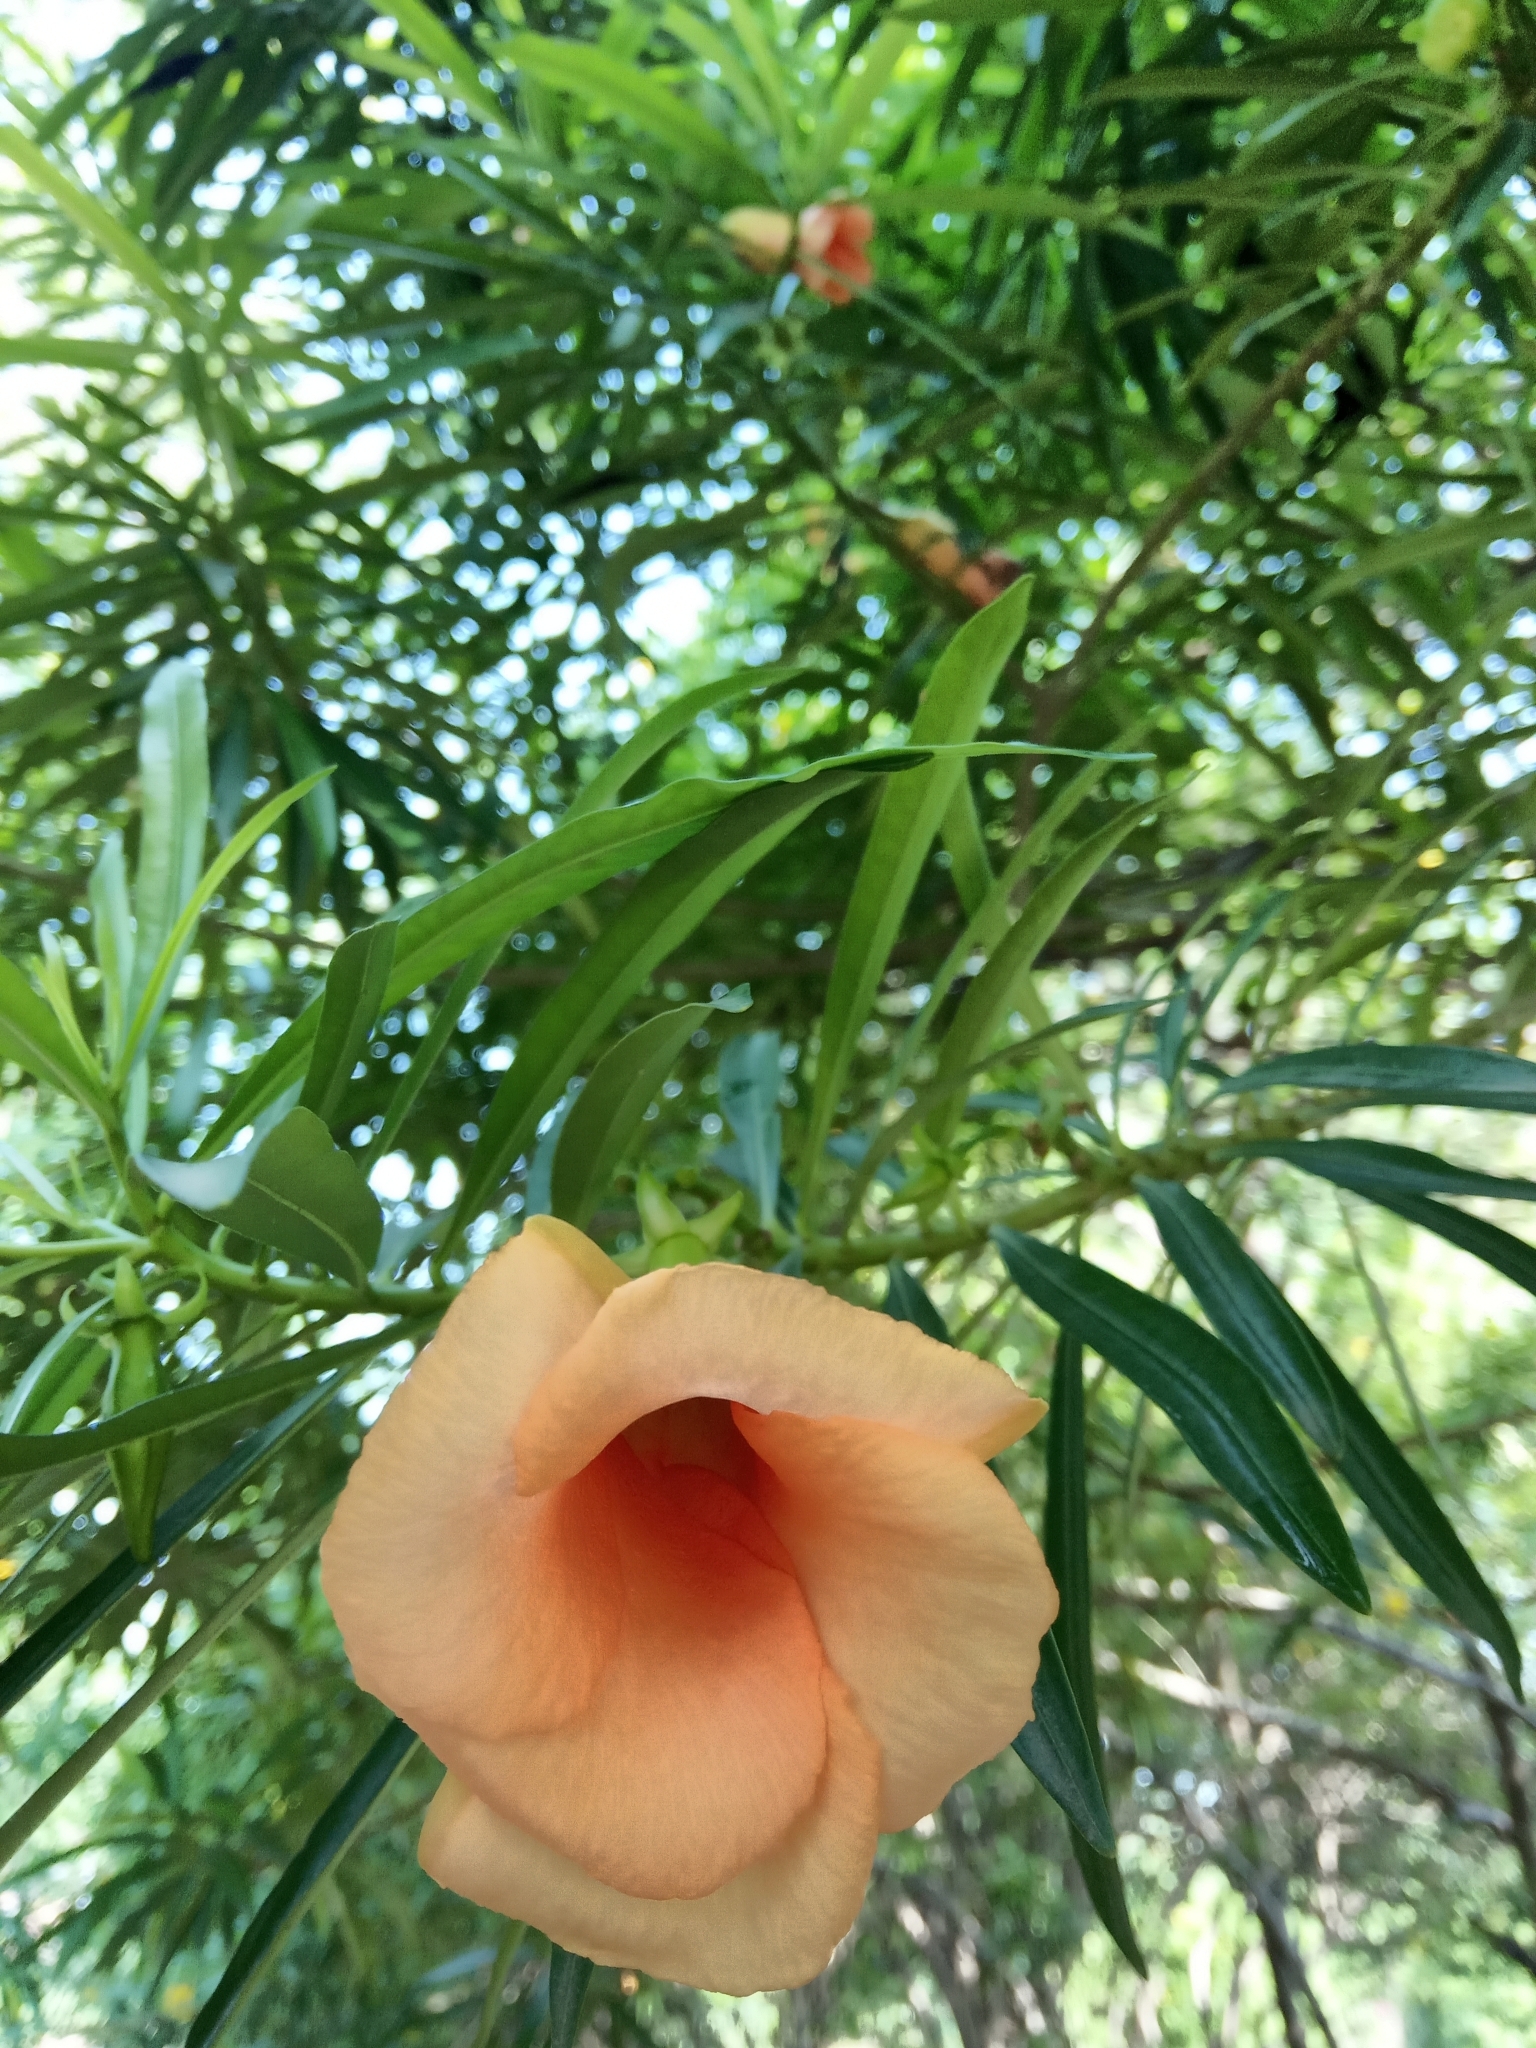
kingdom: Plantae
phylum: Tracheophyta
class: Magnoliopsida
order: Gentianales
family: Apocynaceae
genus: Cascabela
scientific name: Cascabela thevetia
